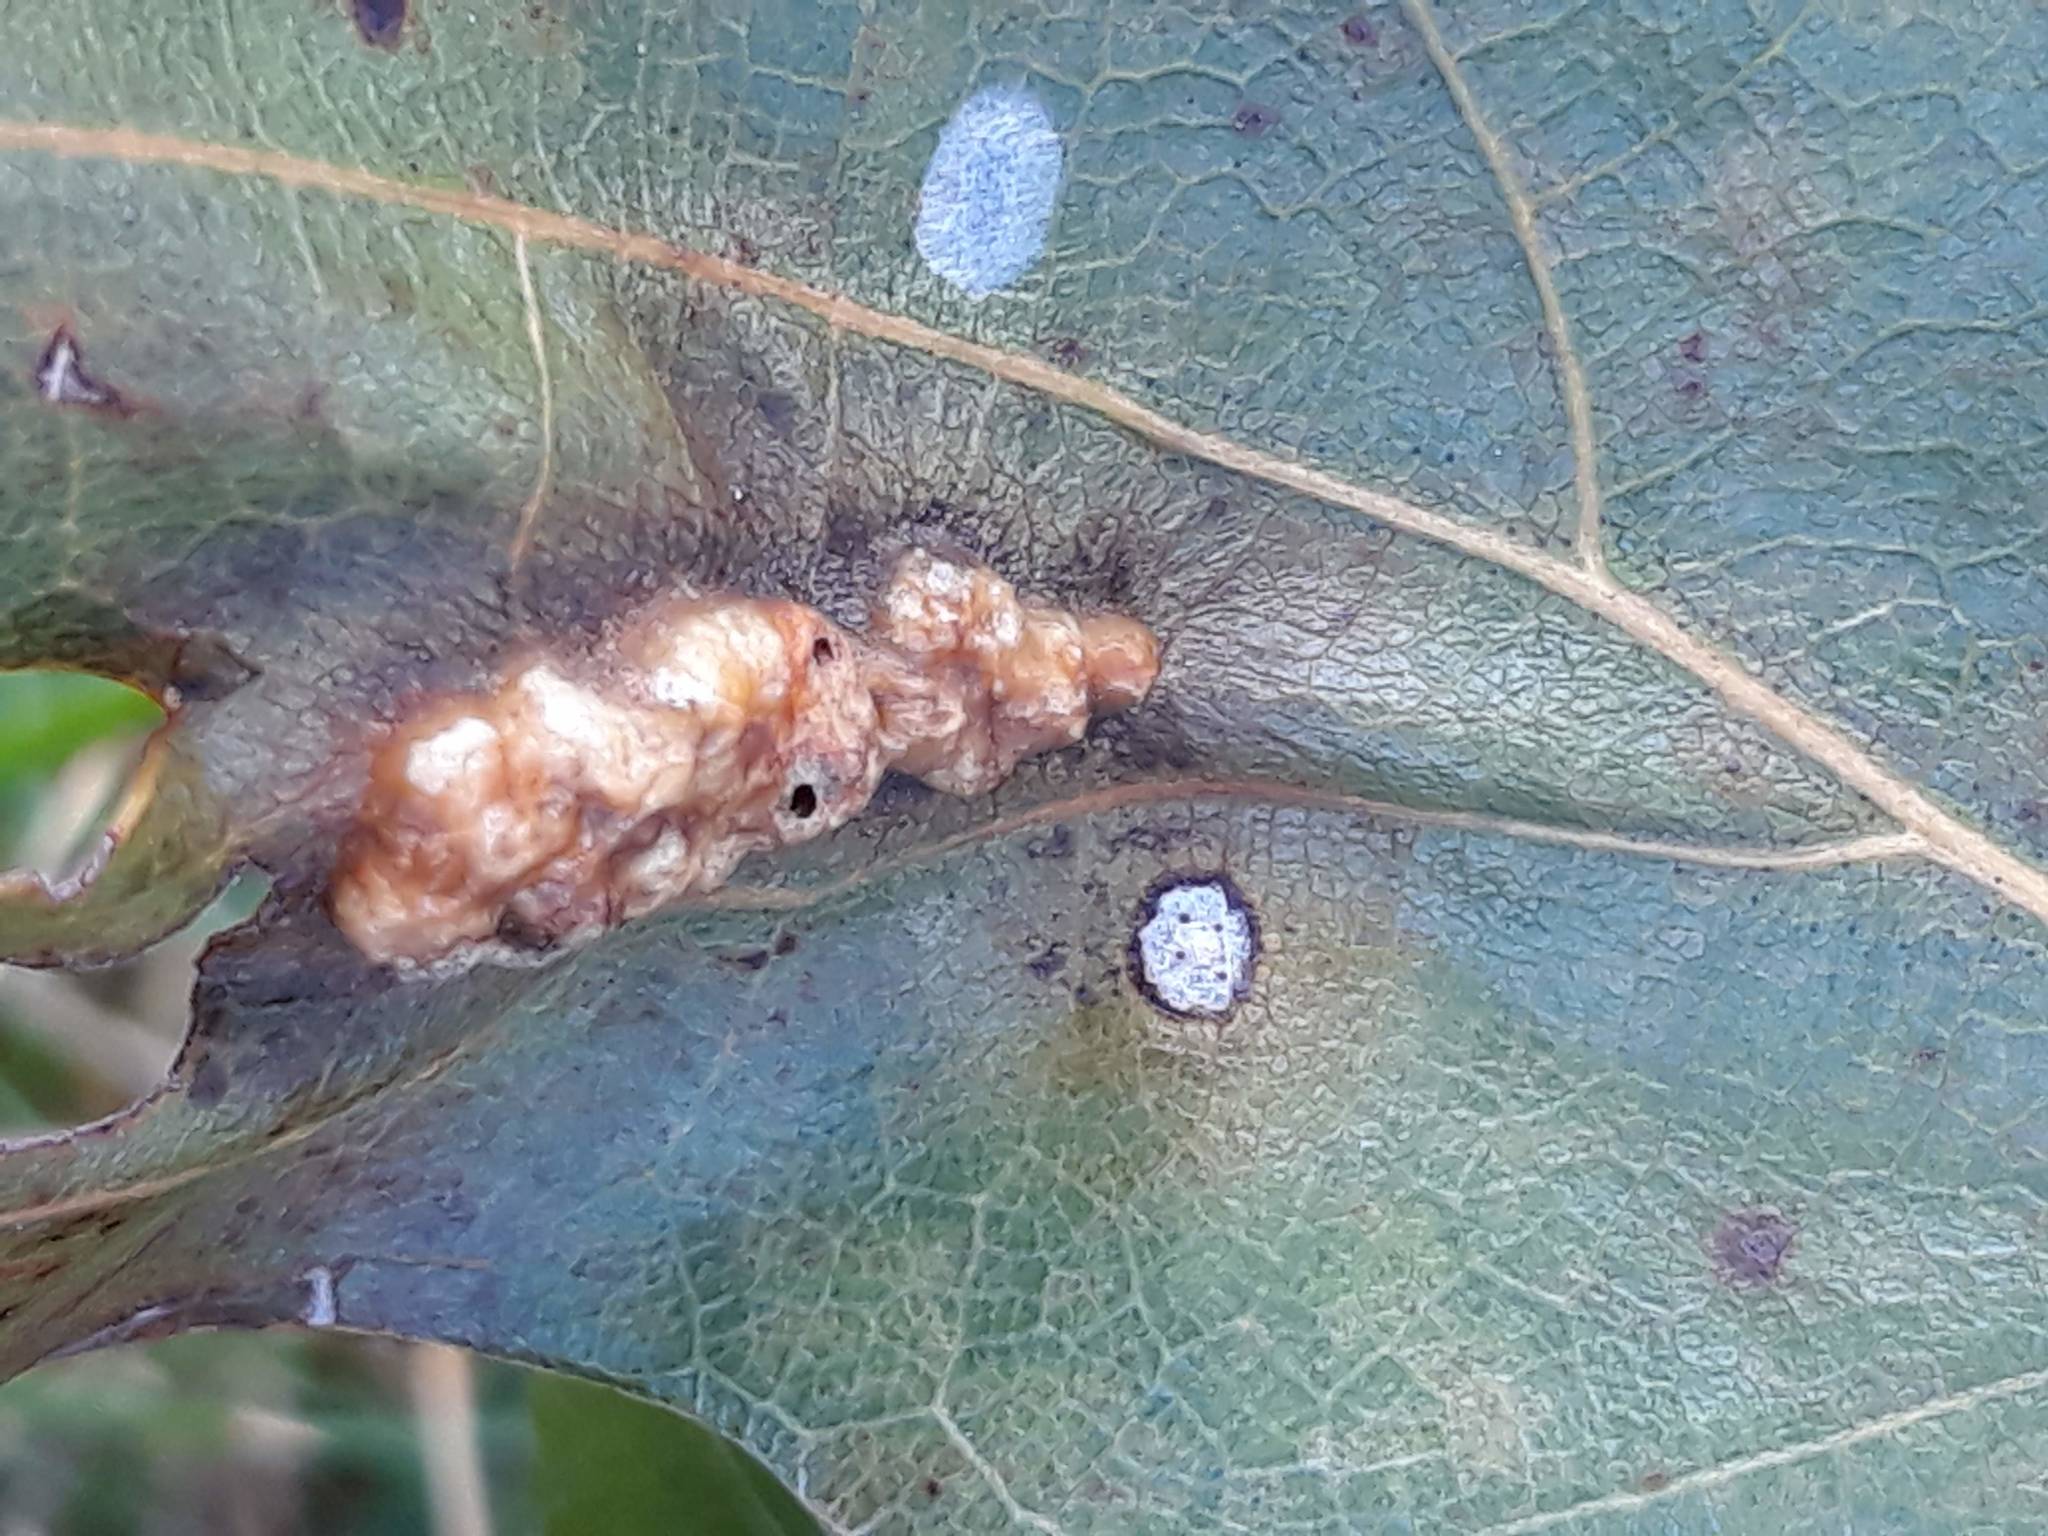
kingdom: Animalia
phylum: Arthropoda
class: Insecta
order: Hymenoptera
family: Cynipidae
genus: Melikaiella
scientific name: Melikaiella ostensackeni
